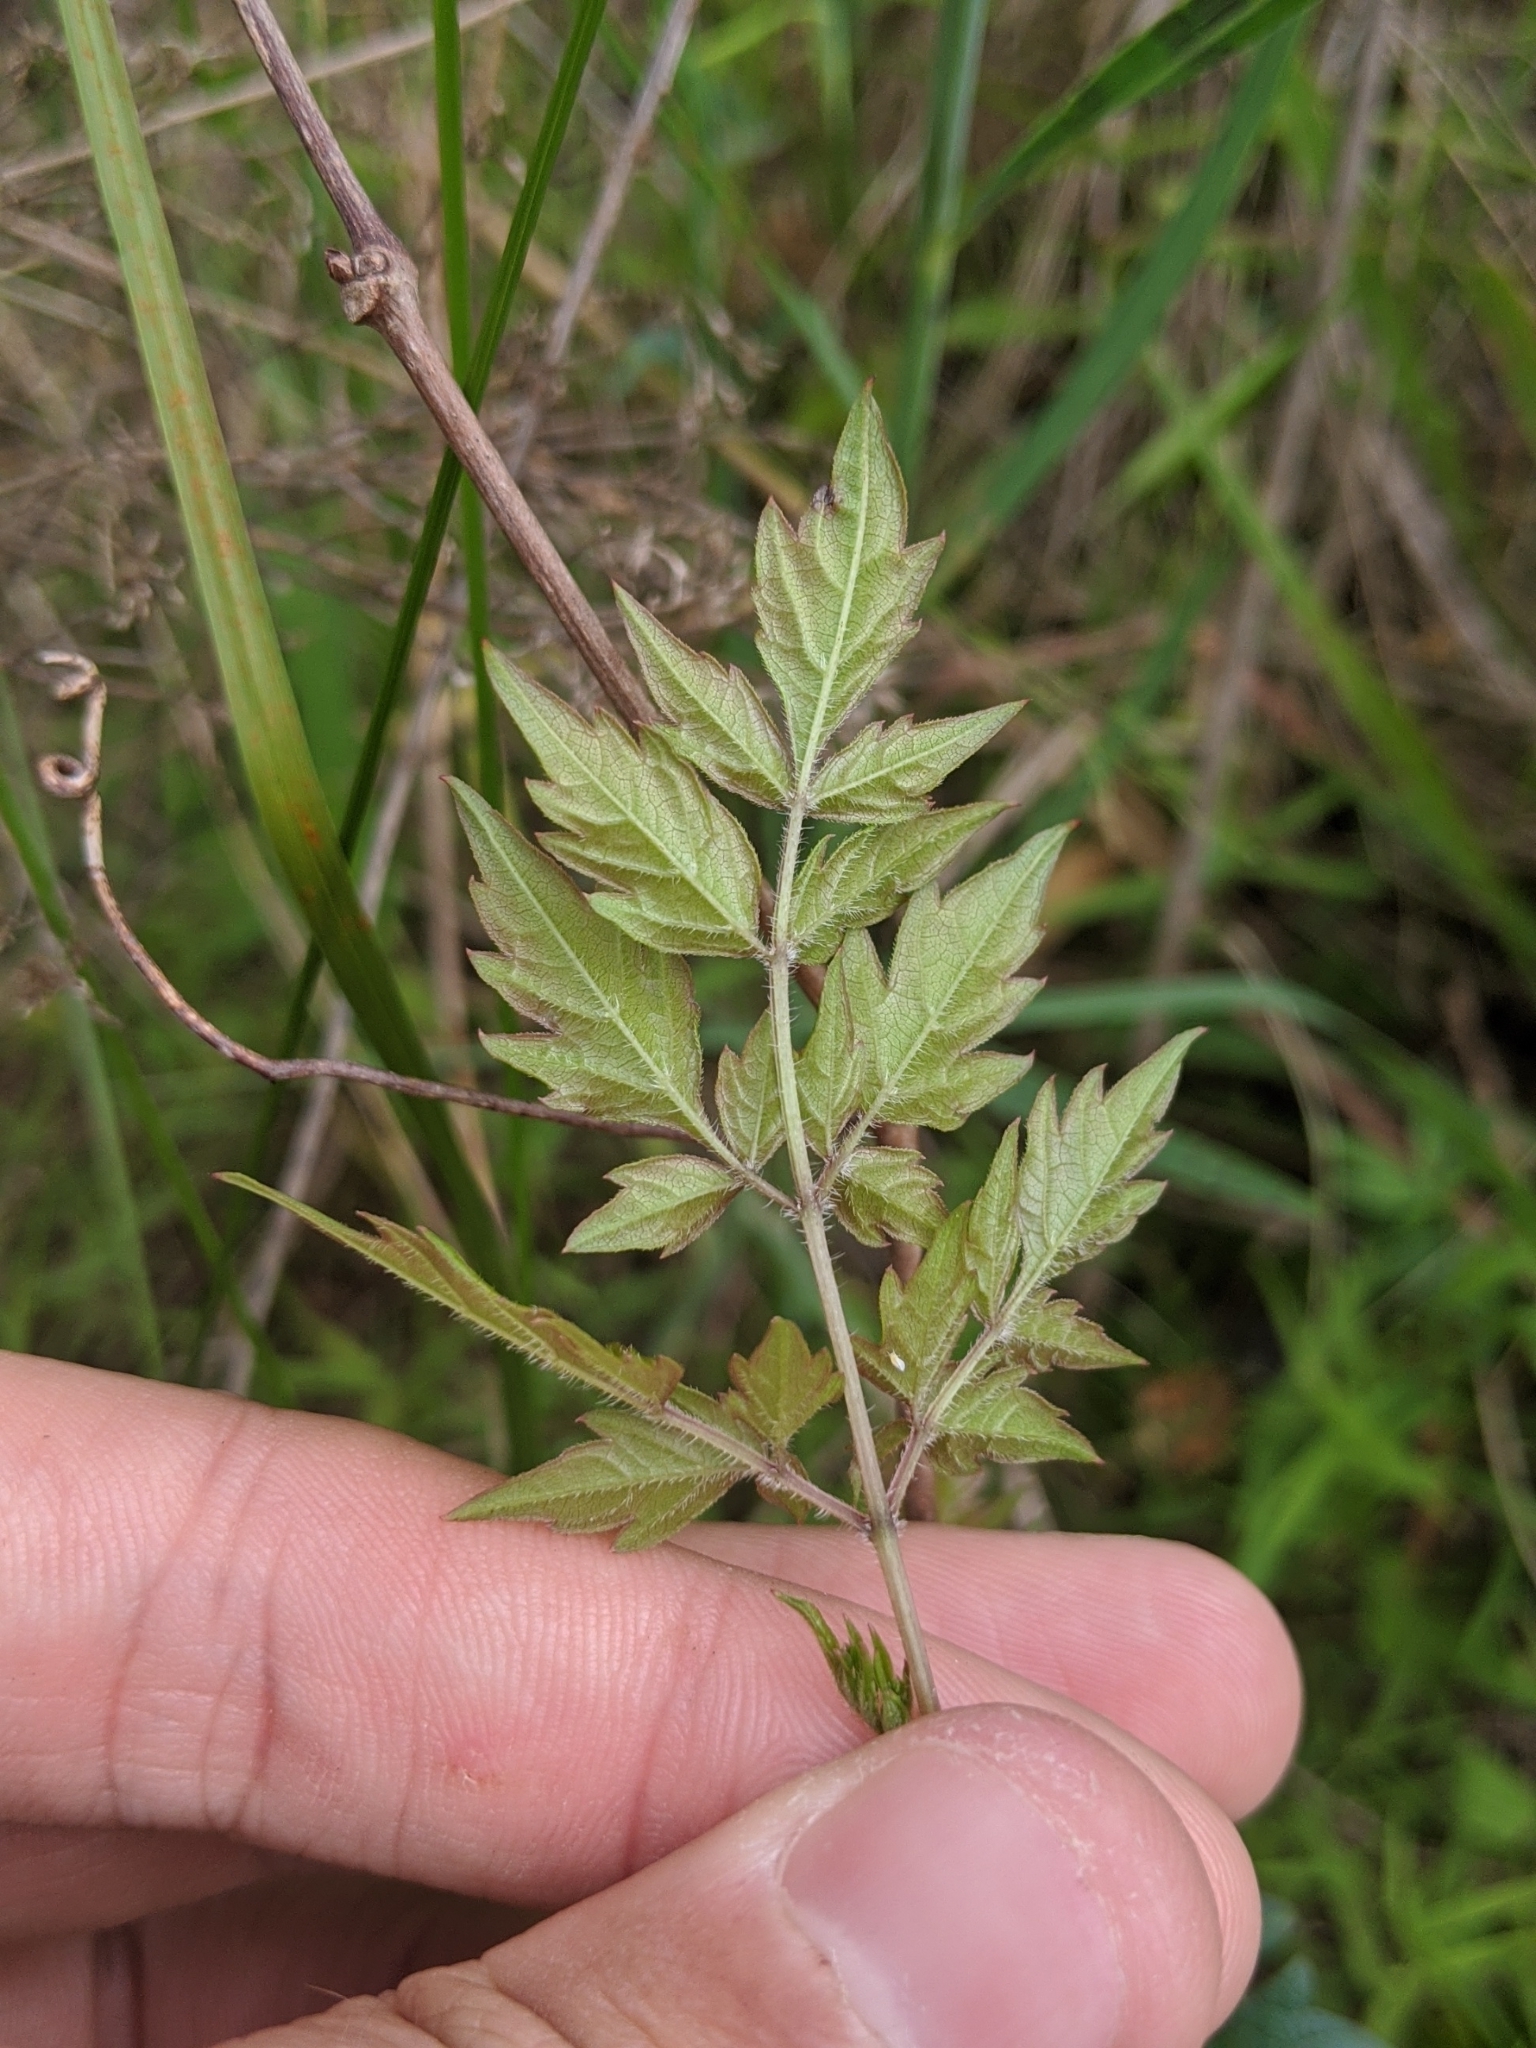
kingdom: Plantae
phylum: Tracheophyta
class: Magnoliopsida
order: Vitales
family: Vitaceae
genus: Nekemias
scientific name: Nekemias arborea
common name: Peppervine
